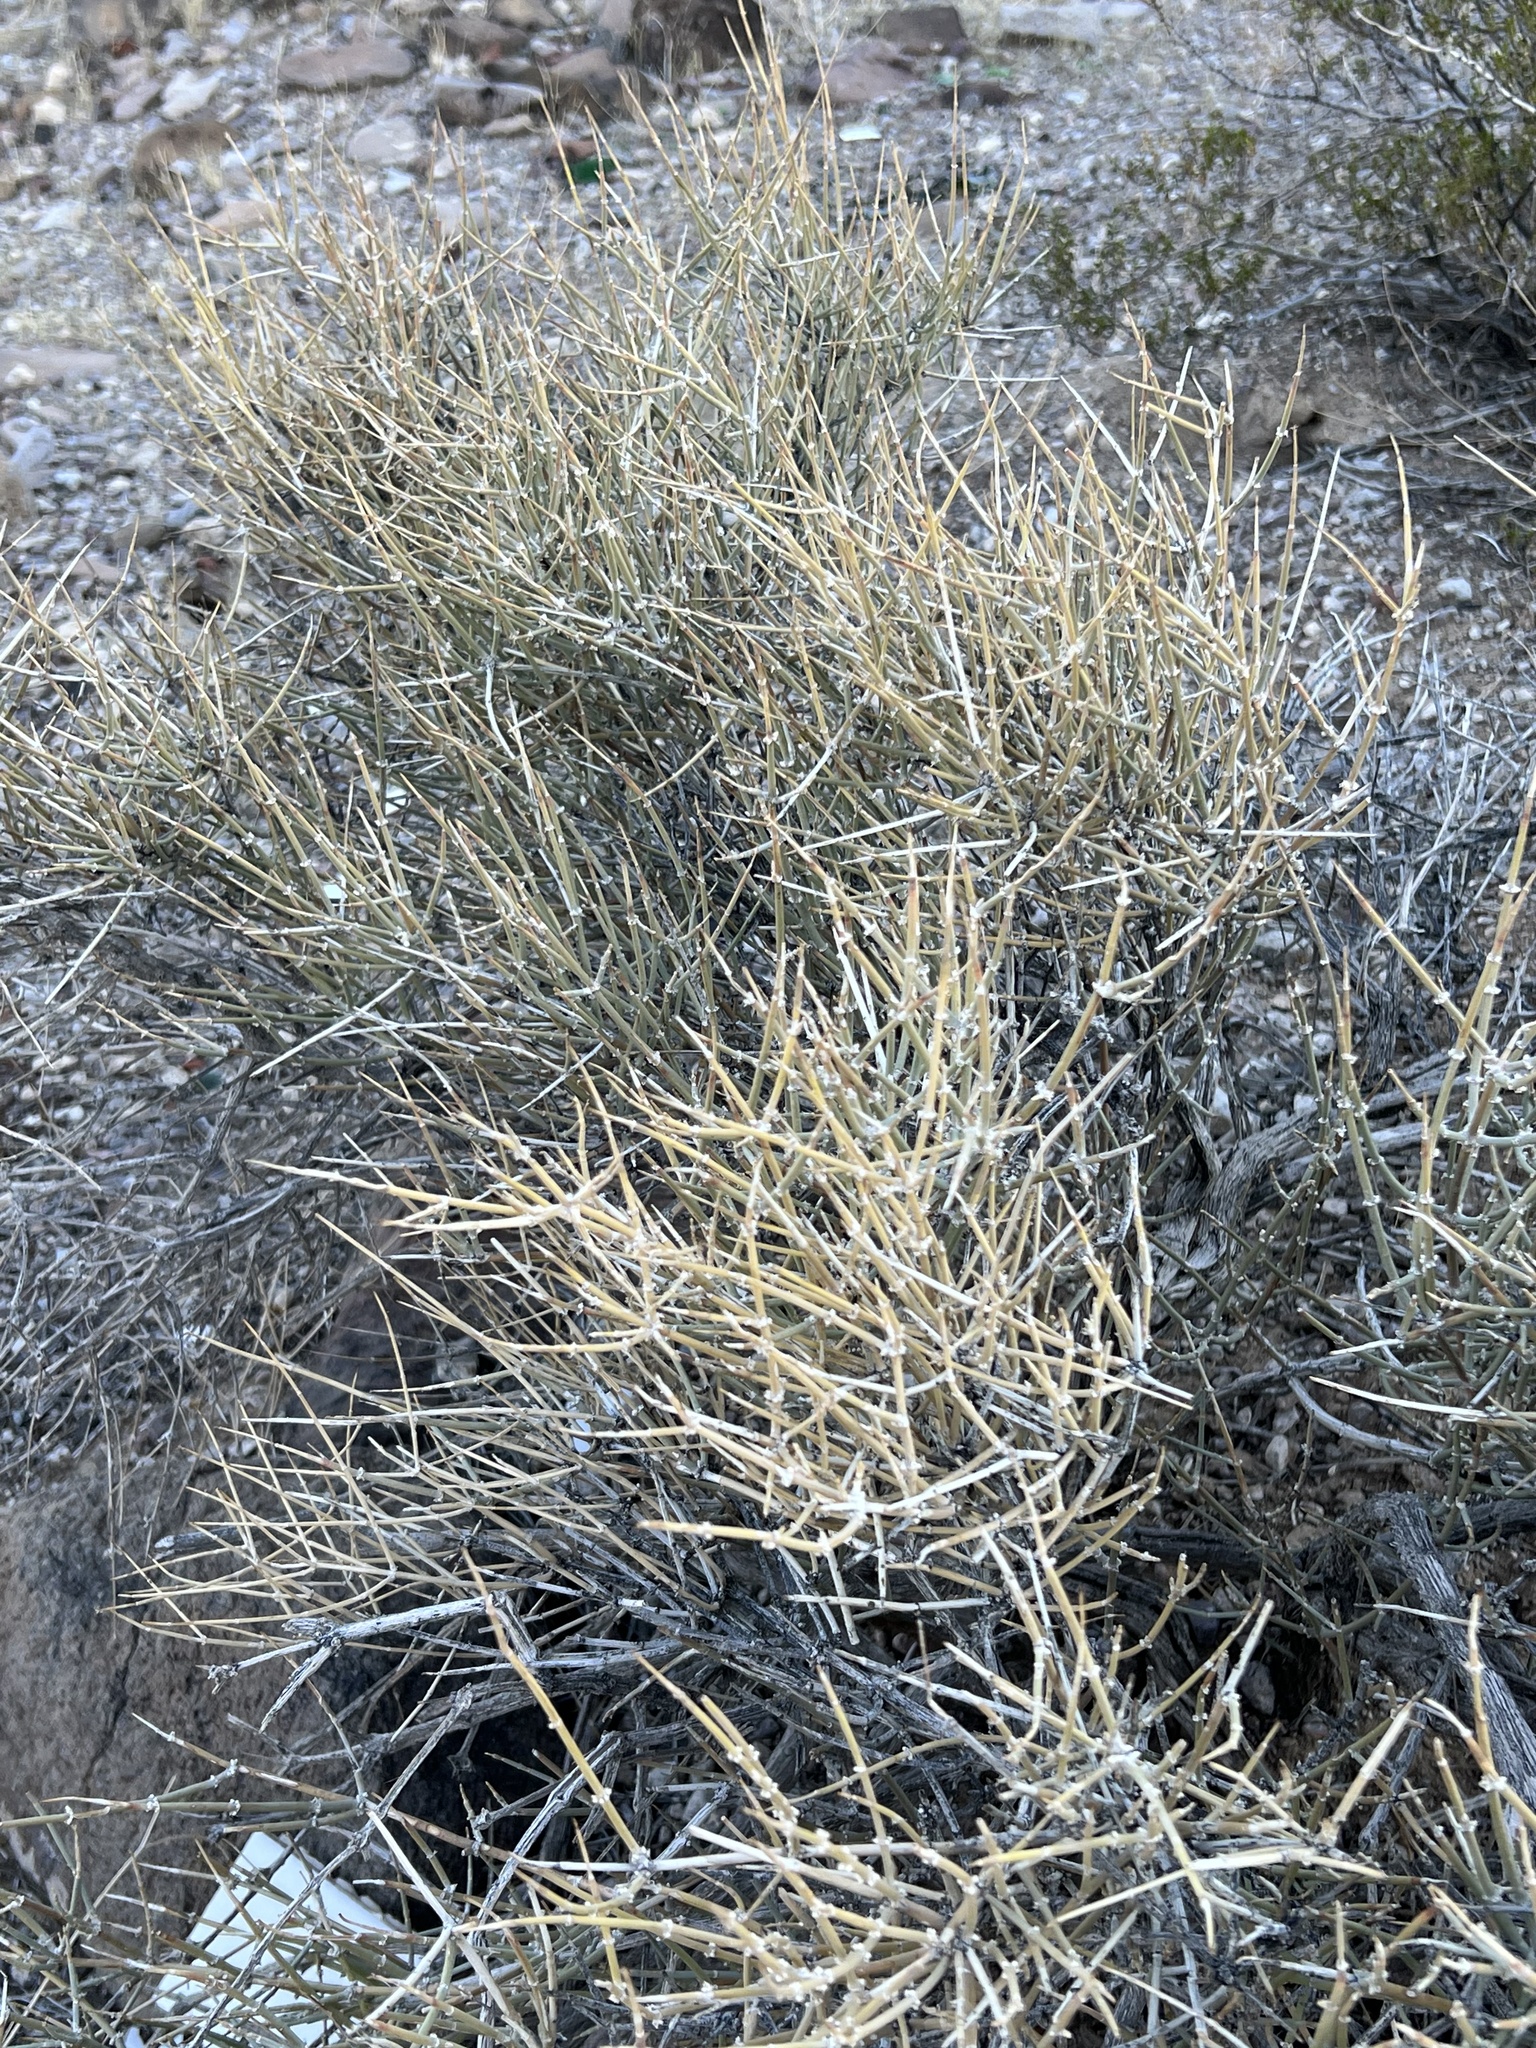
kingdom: Plantae
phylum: Tracheophyta
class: Gnetopsida
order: Ephedrales
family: Ephedraceae
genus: Ephedra
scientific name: Ephedra nevadensis
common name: Gray ephedra
